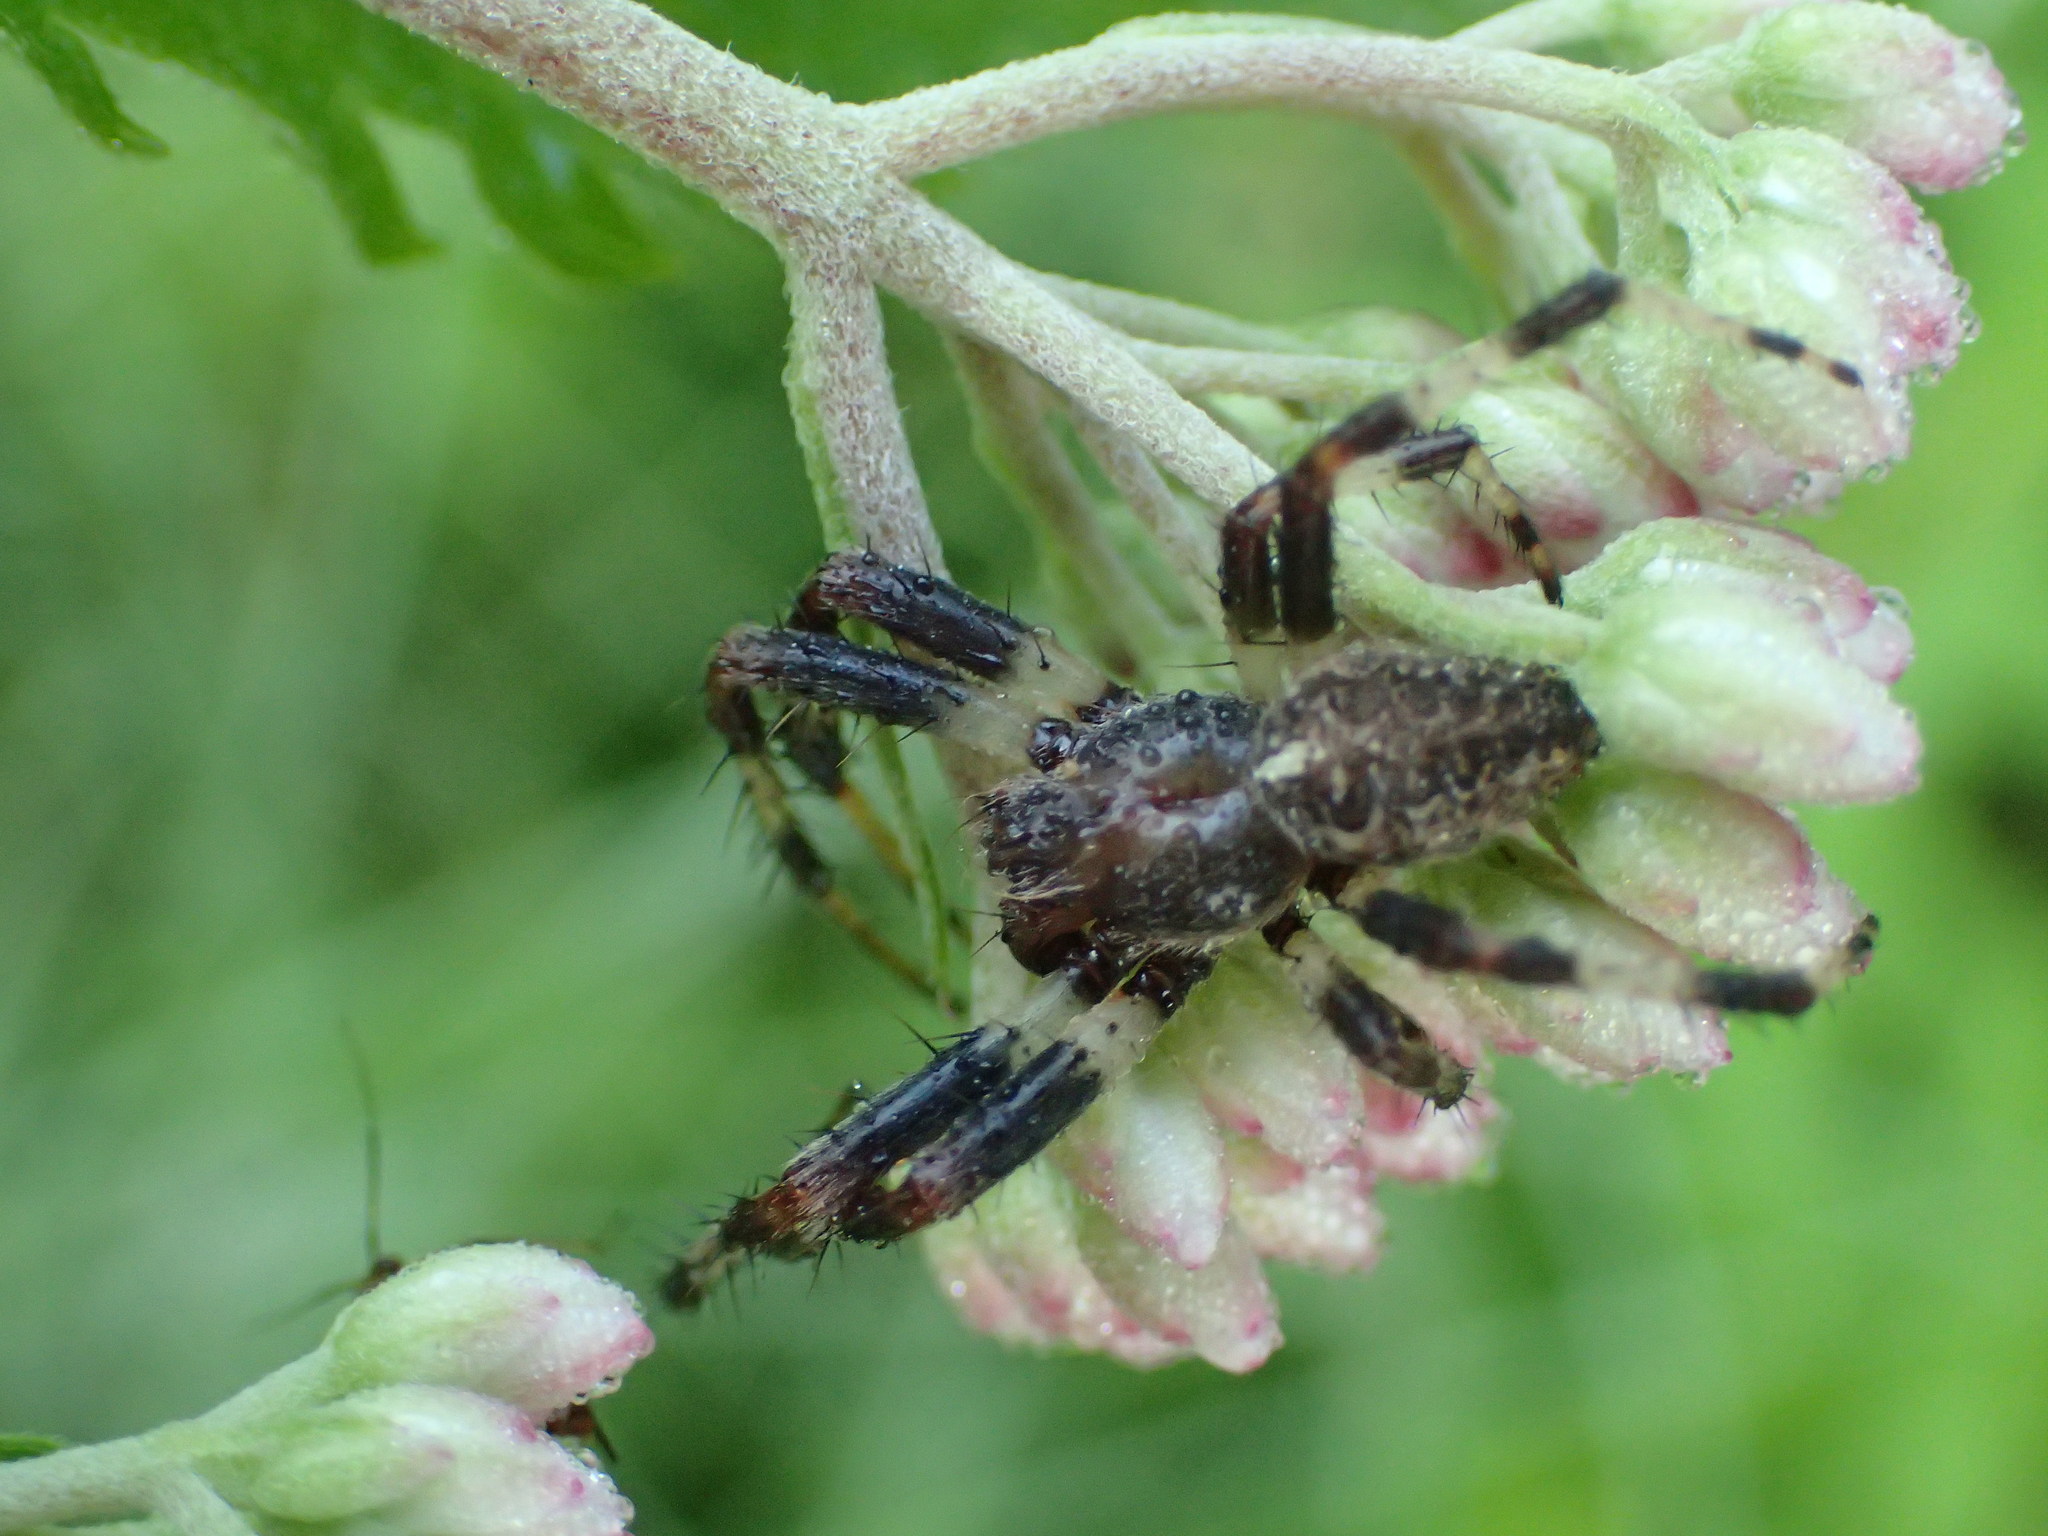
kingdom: Animalia
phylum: Arthropoda
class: Arachnida
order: Araneae
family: Araneidae
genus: Araneus
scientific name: Araneus marmoreus
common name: Marbled orbweaver
